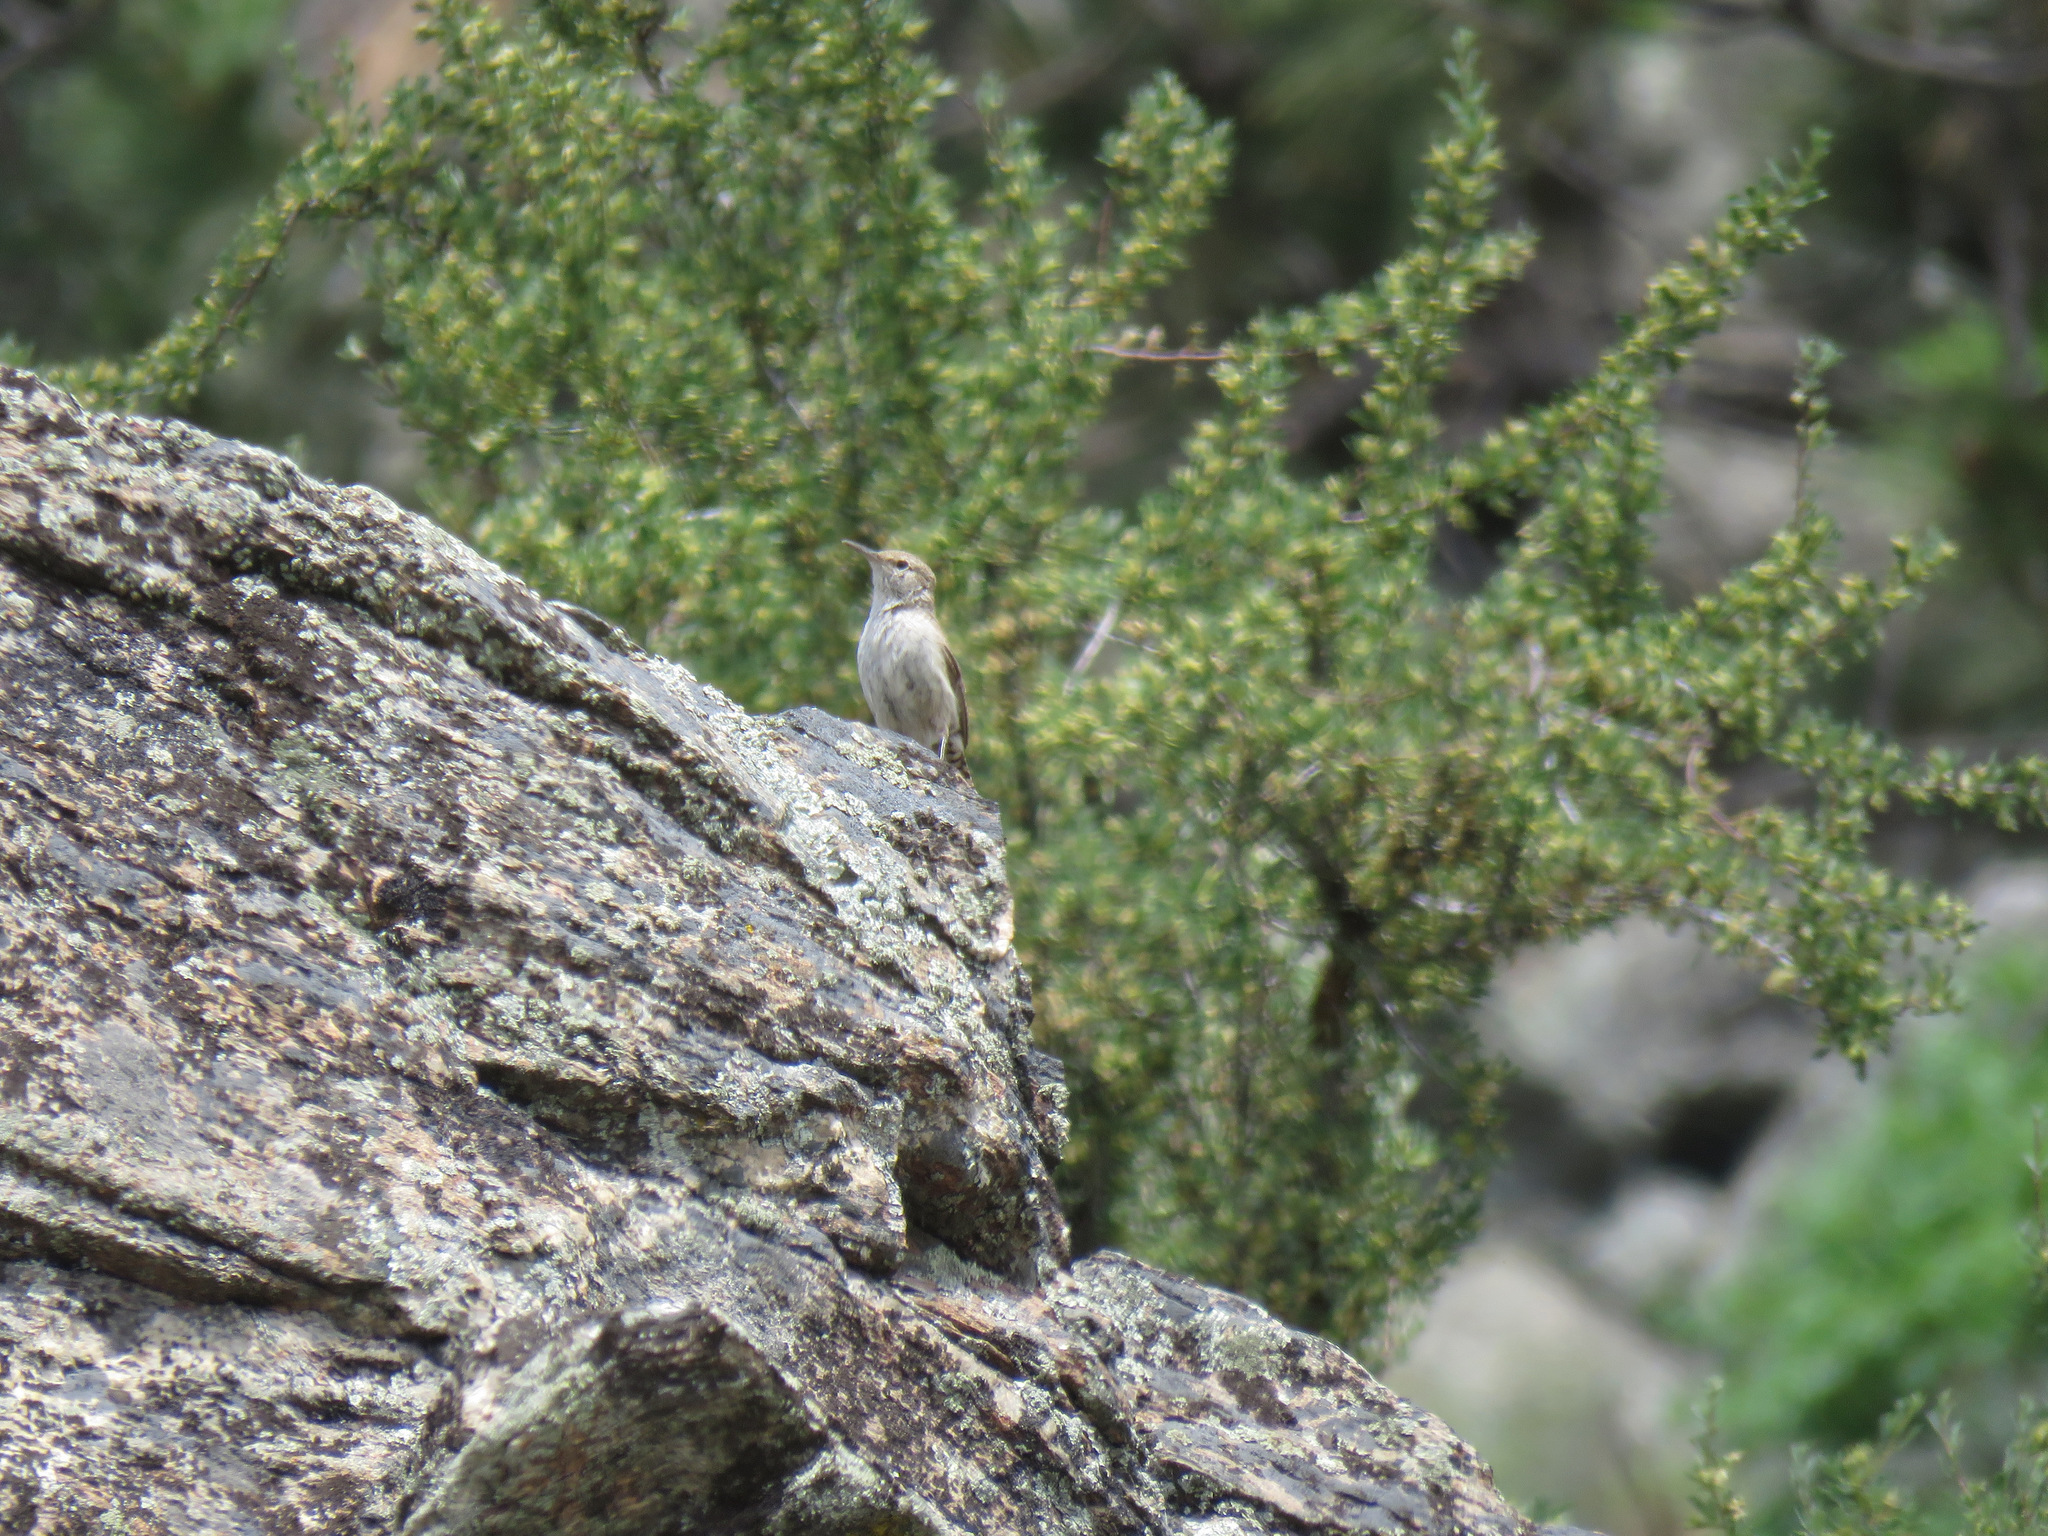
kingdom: Animalia
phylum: Chordata
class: Aves
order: Passeriformes
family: Troglodytidae
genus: Salpinctes
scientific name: Salpinctes obsoletus
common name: Rock wren
